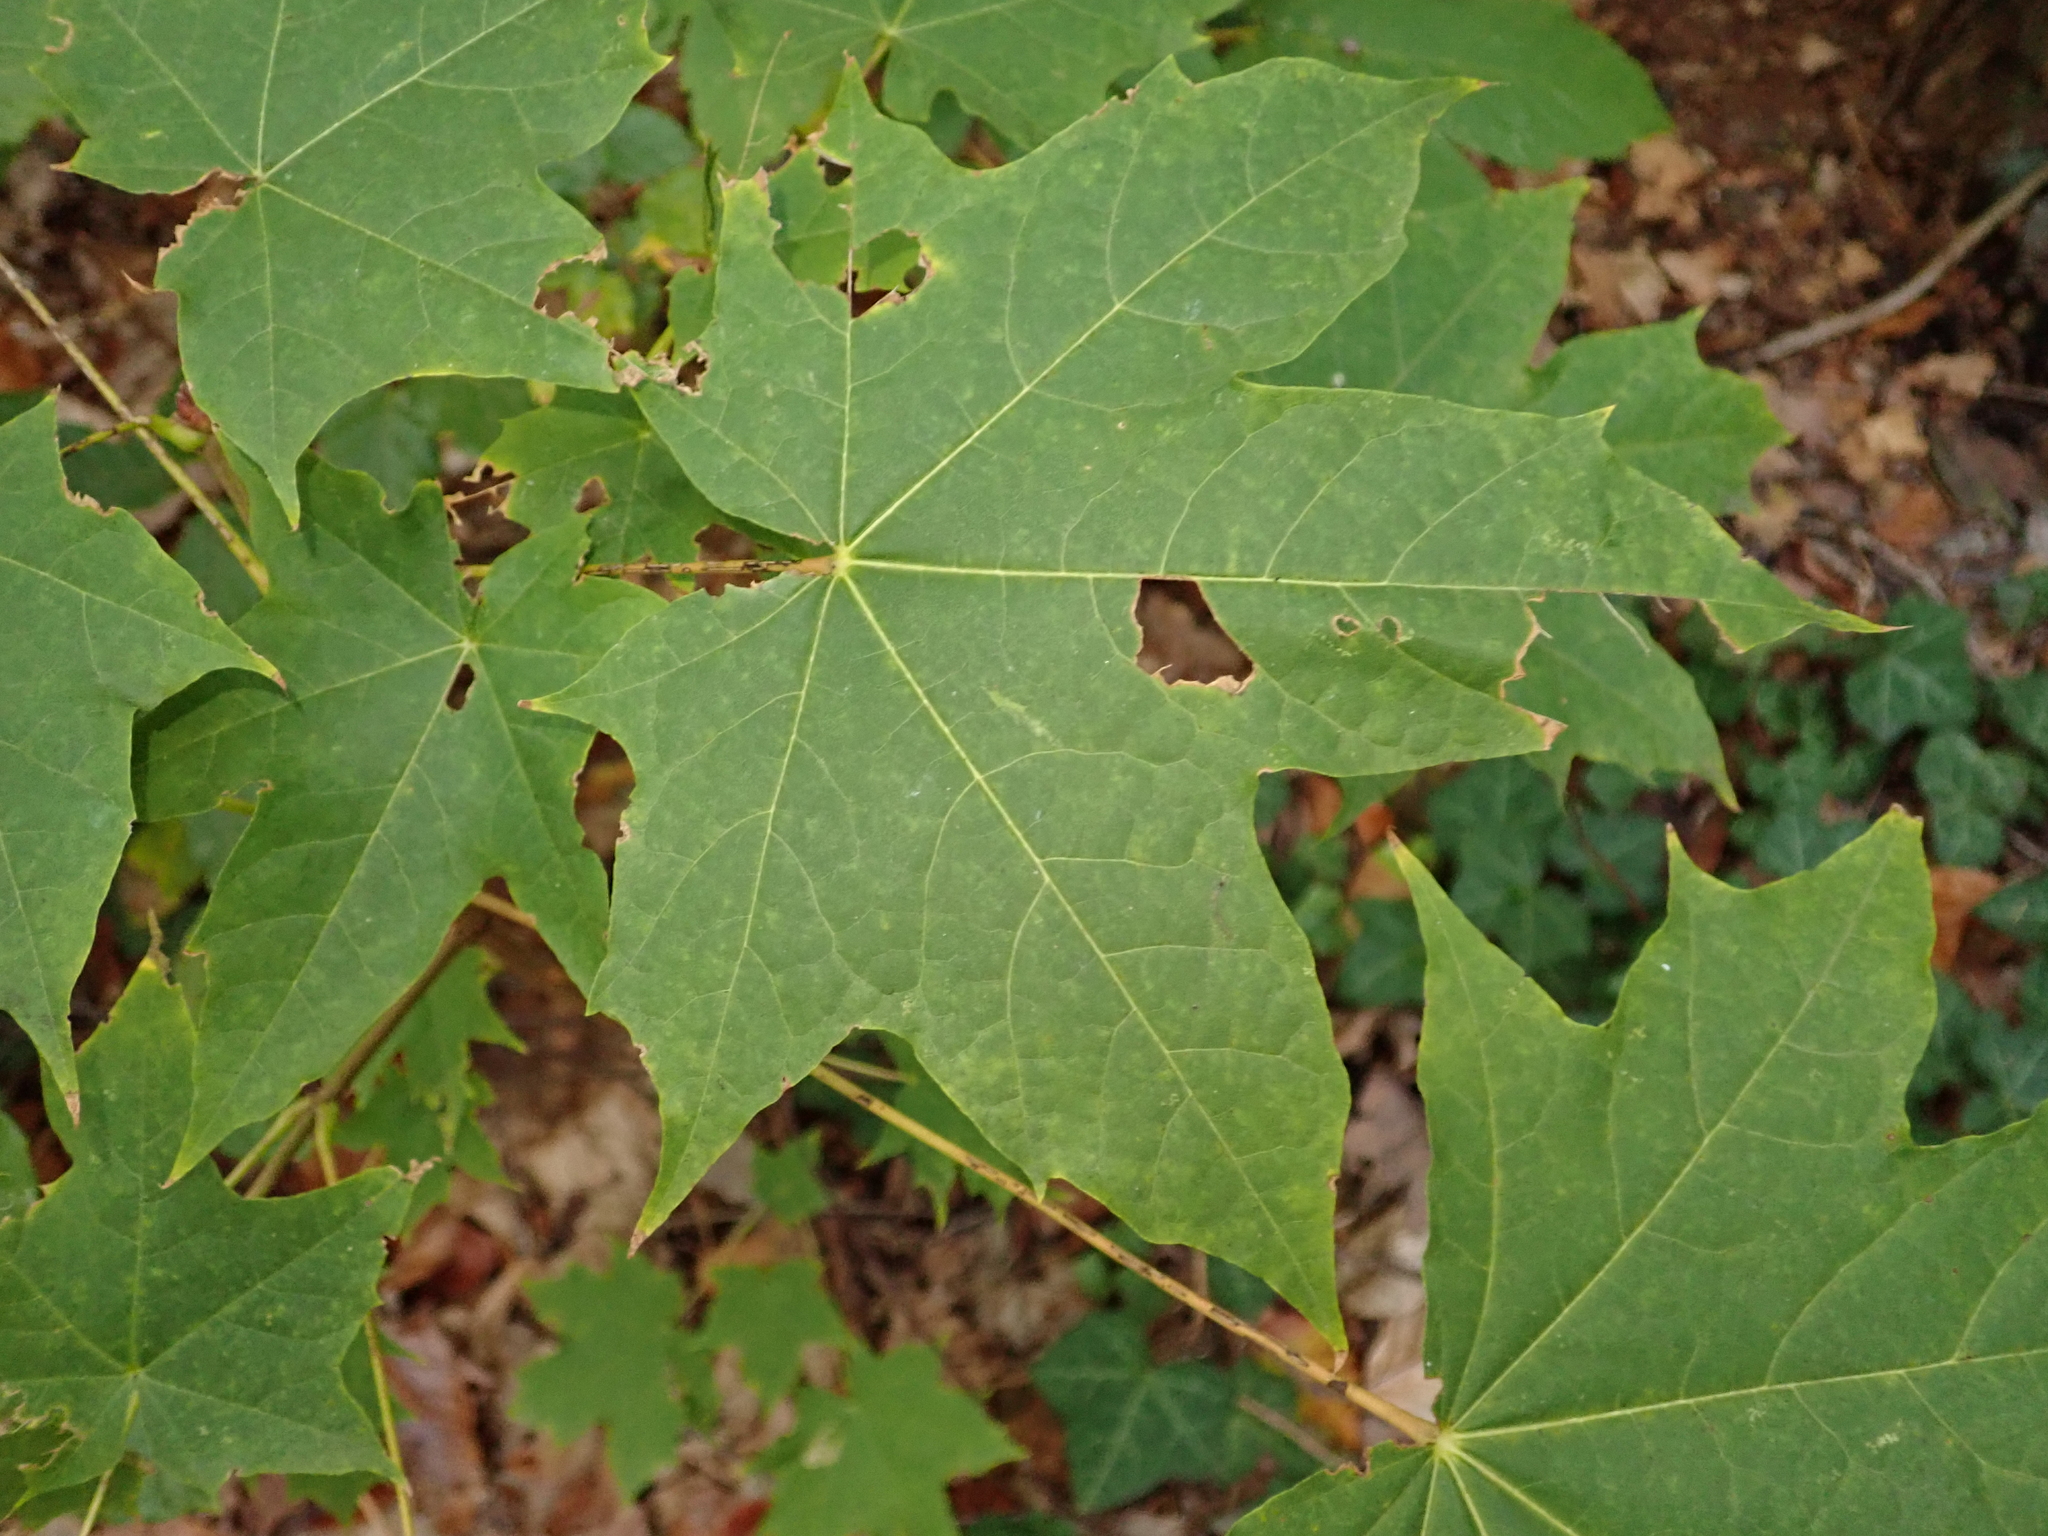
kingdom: Plantae
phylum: Tracheophyta
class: Magnoliopsida
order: Sapindales
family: Sapindaceae
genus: Acer
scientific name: Acer platanoides
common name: Norway maple
